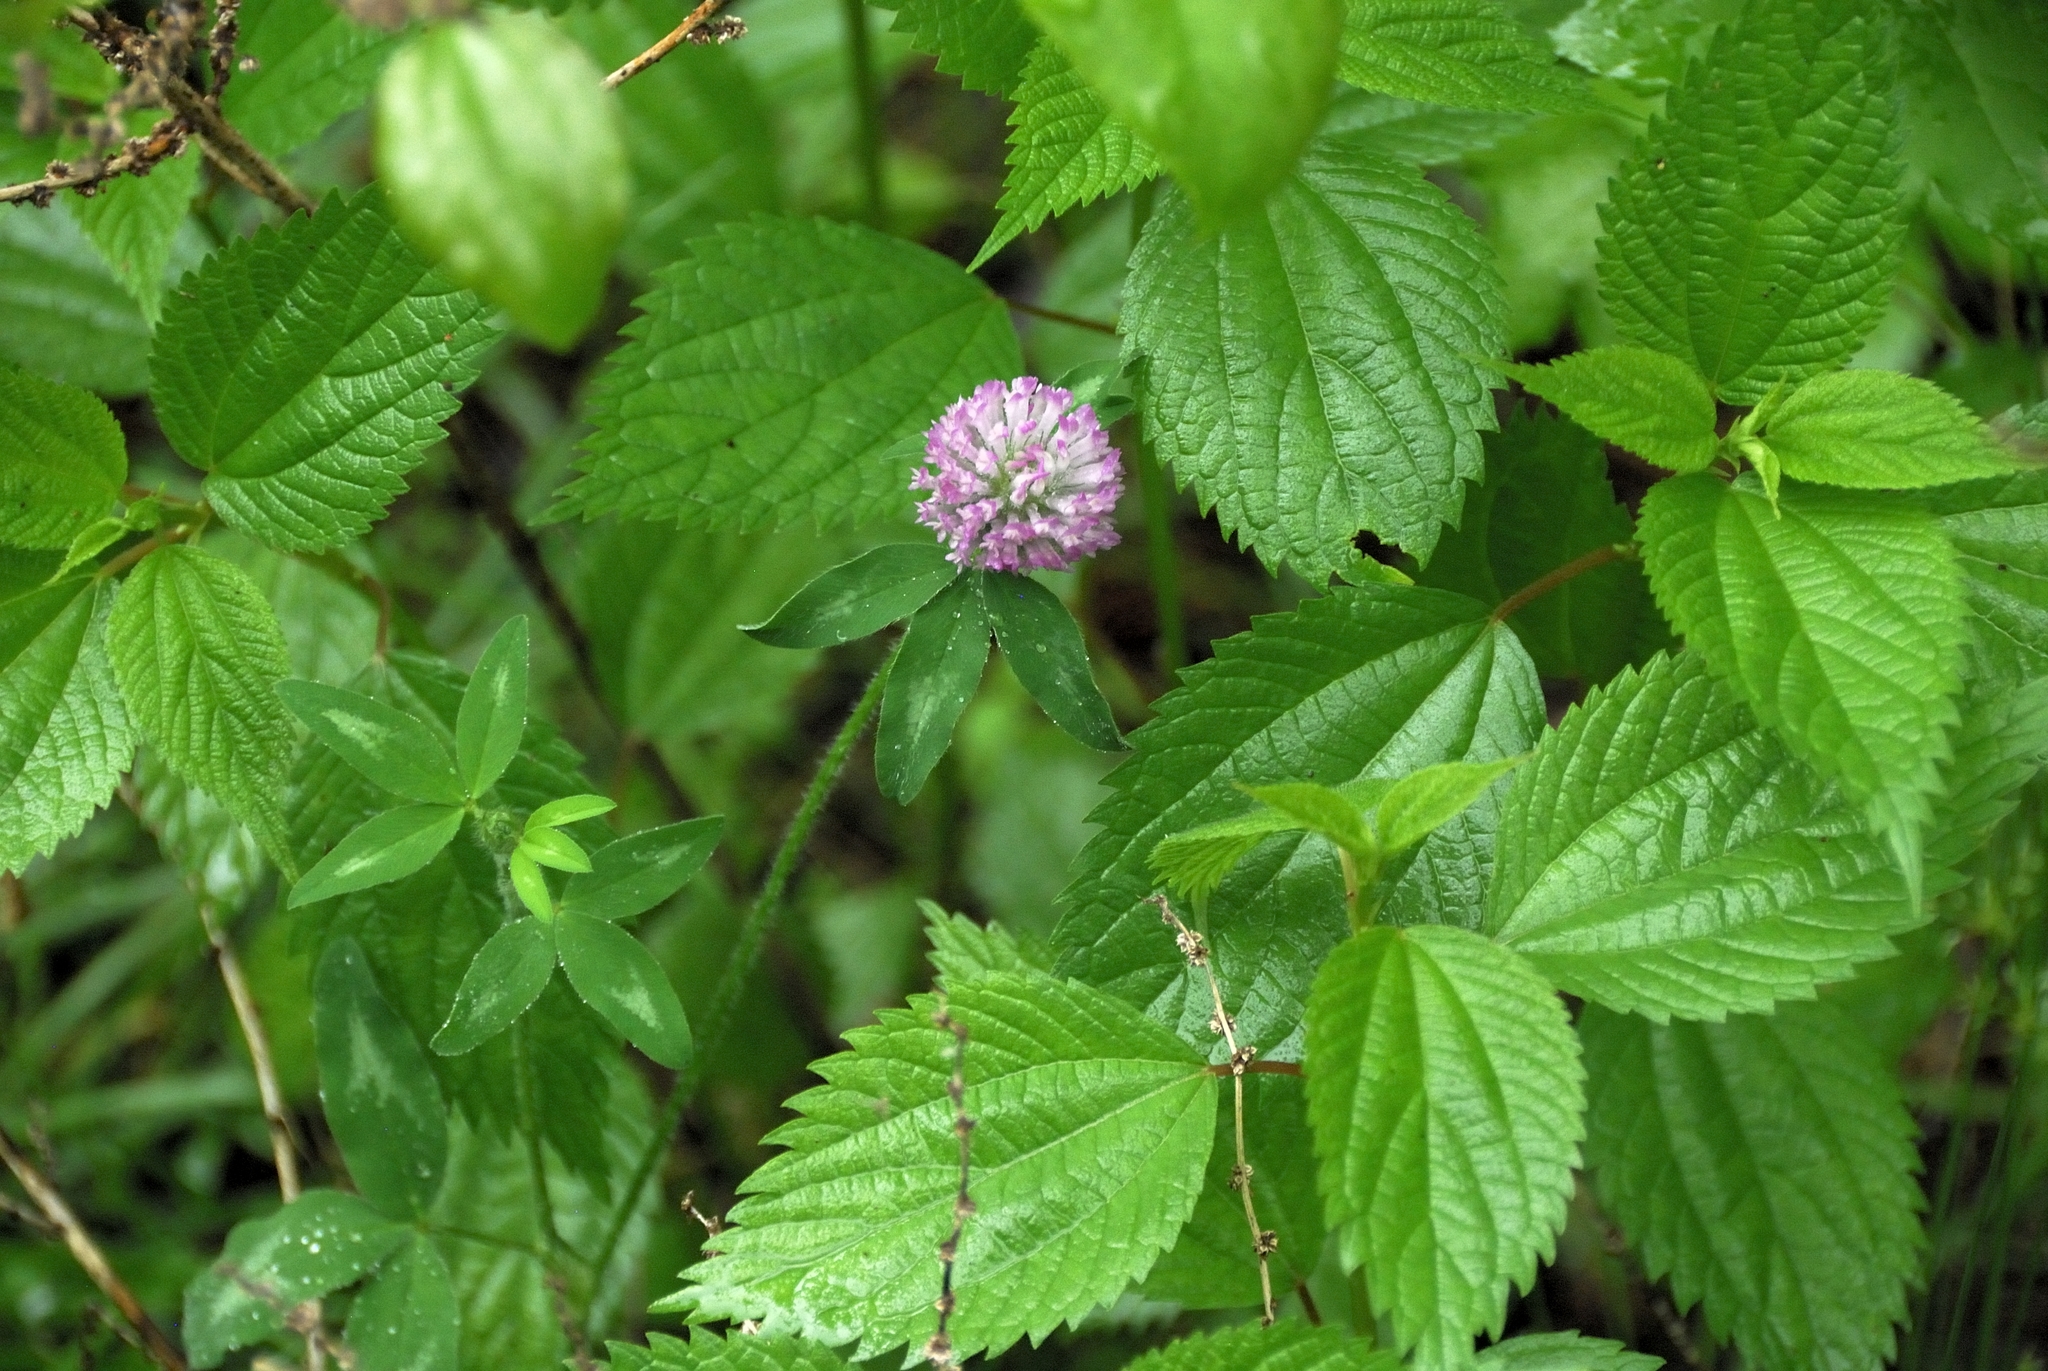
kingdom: Plantae
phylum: Tracheophyta
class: Magnoliopsida
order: Fabales
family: Fabaceae
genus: Trifolium
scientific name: Trifolium pratense
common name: Red clover
